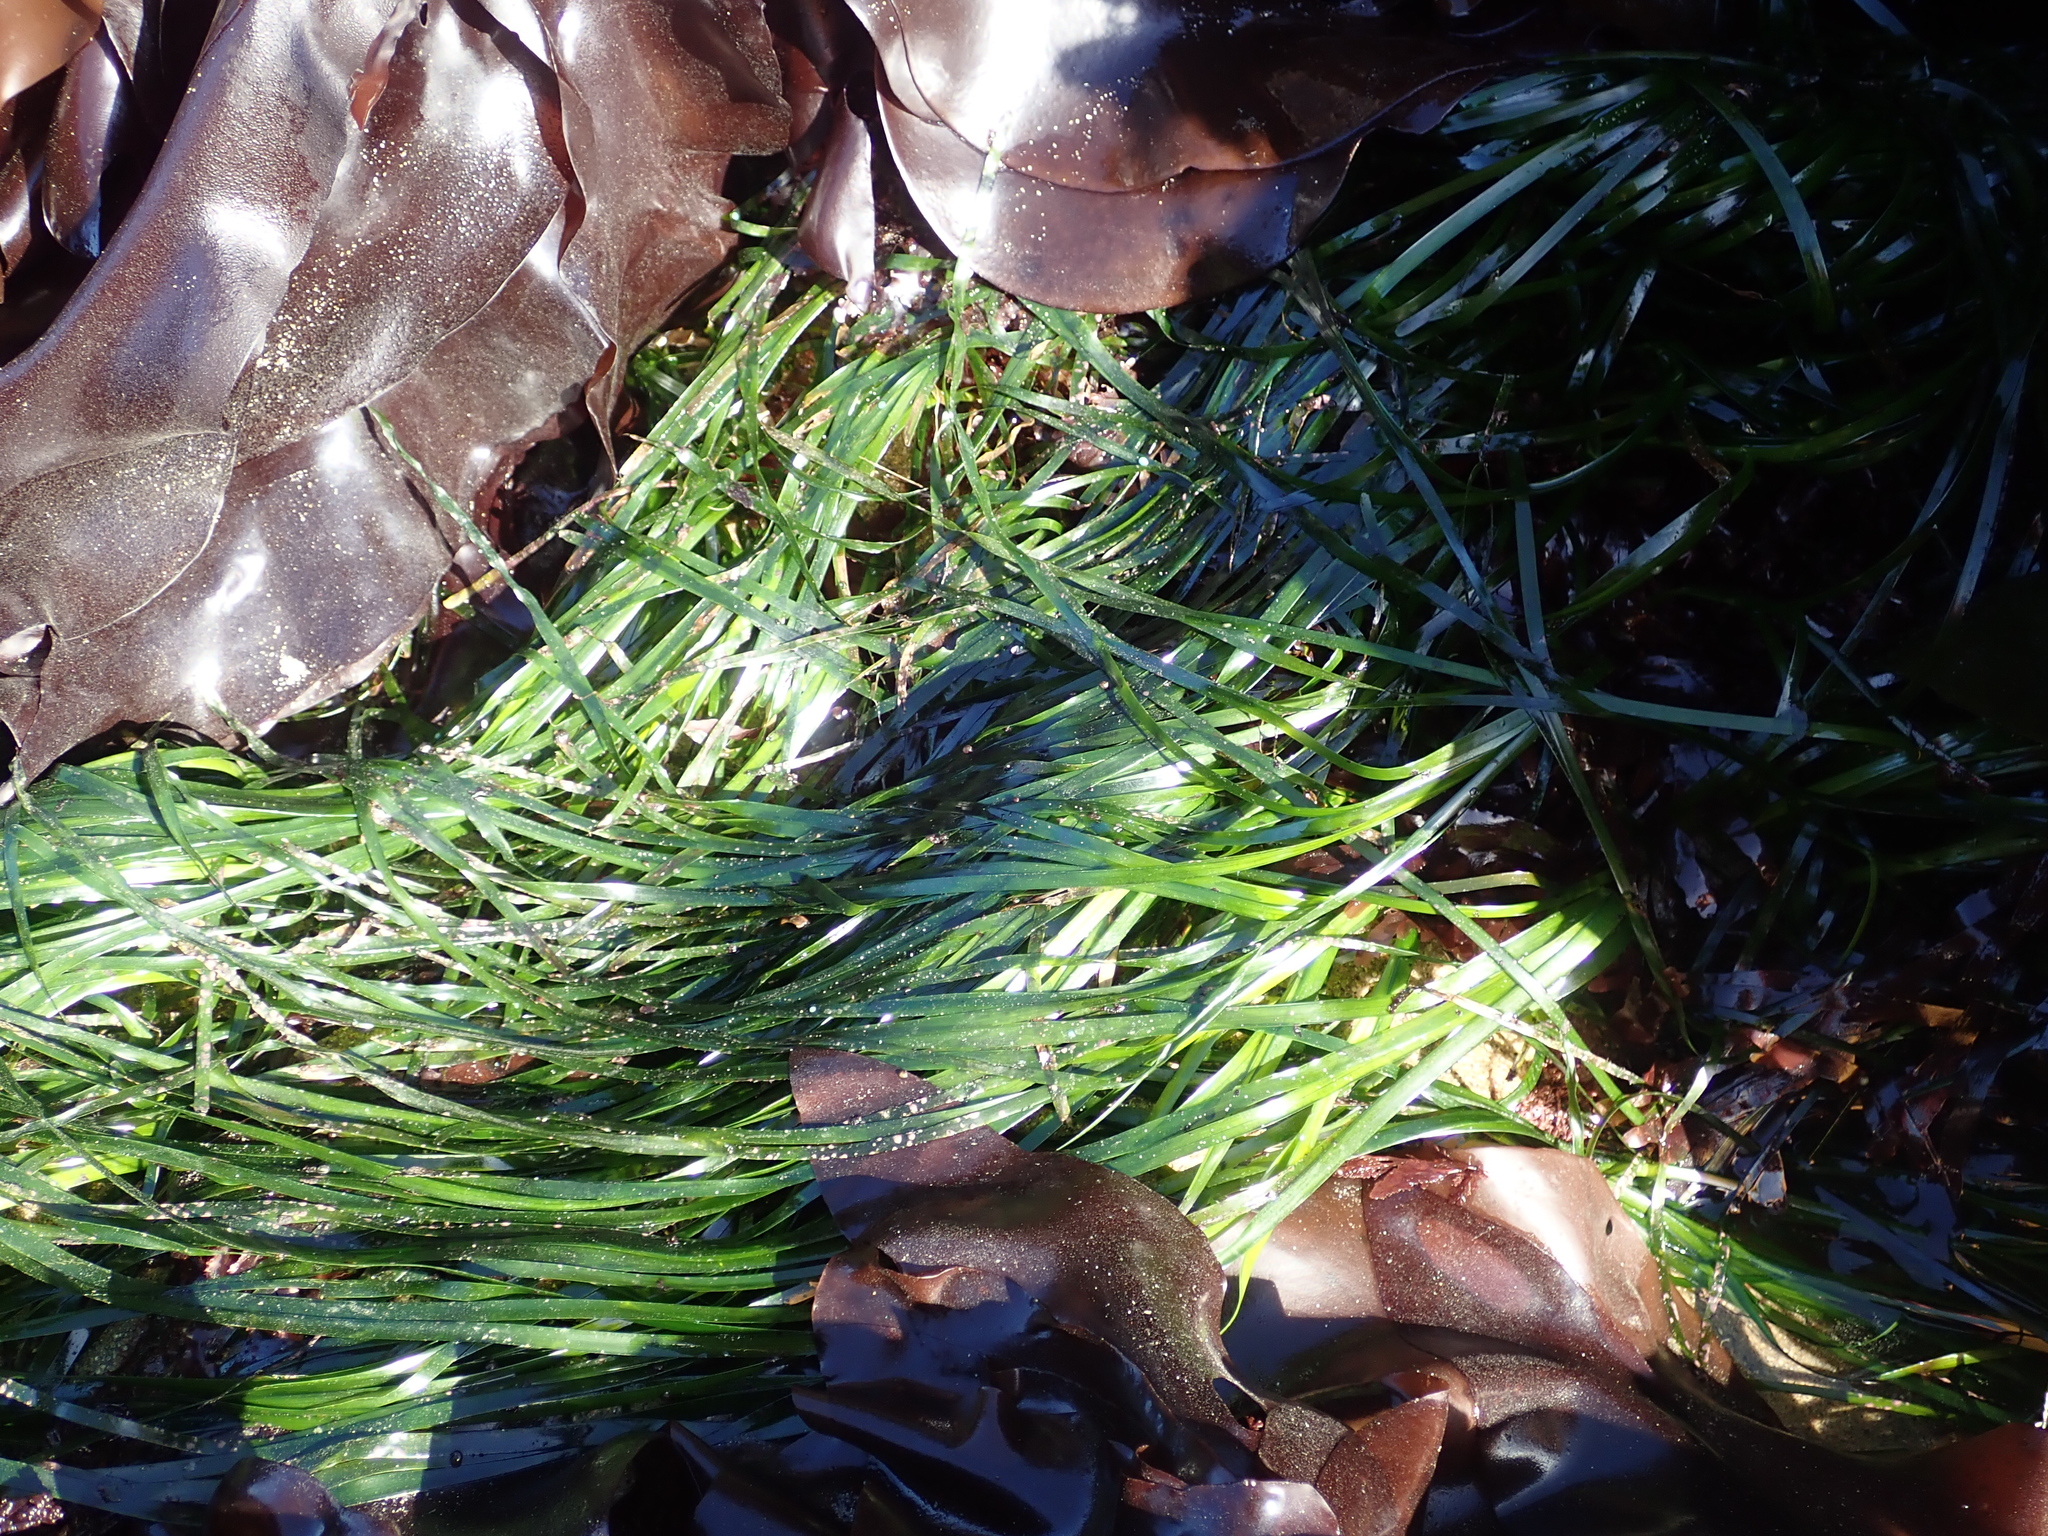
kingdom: Plantae
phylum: Tracheophyta
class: Liliopsida
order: Alismatales
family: Zosteraceae
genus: Phyllospadix
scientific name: Phyllospadix scouleri
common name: Species code: ps
